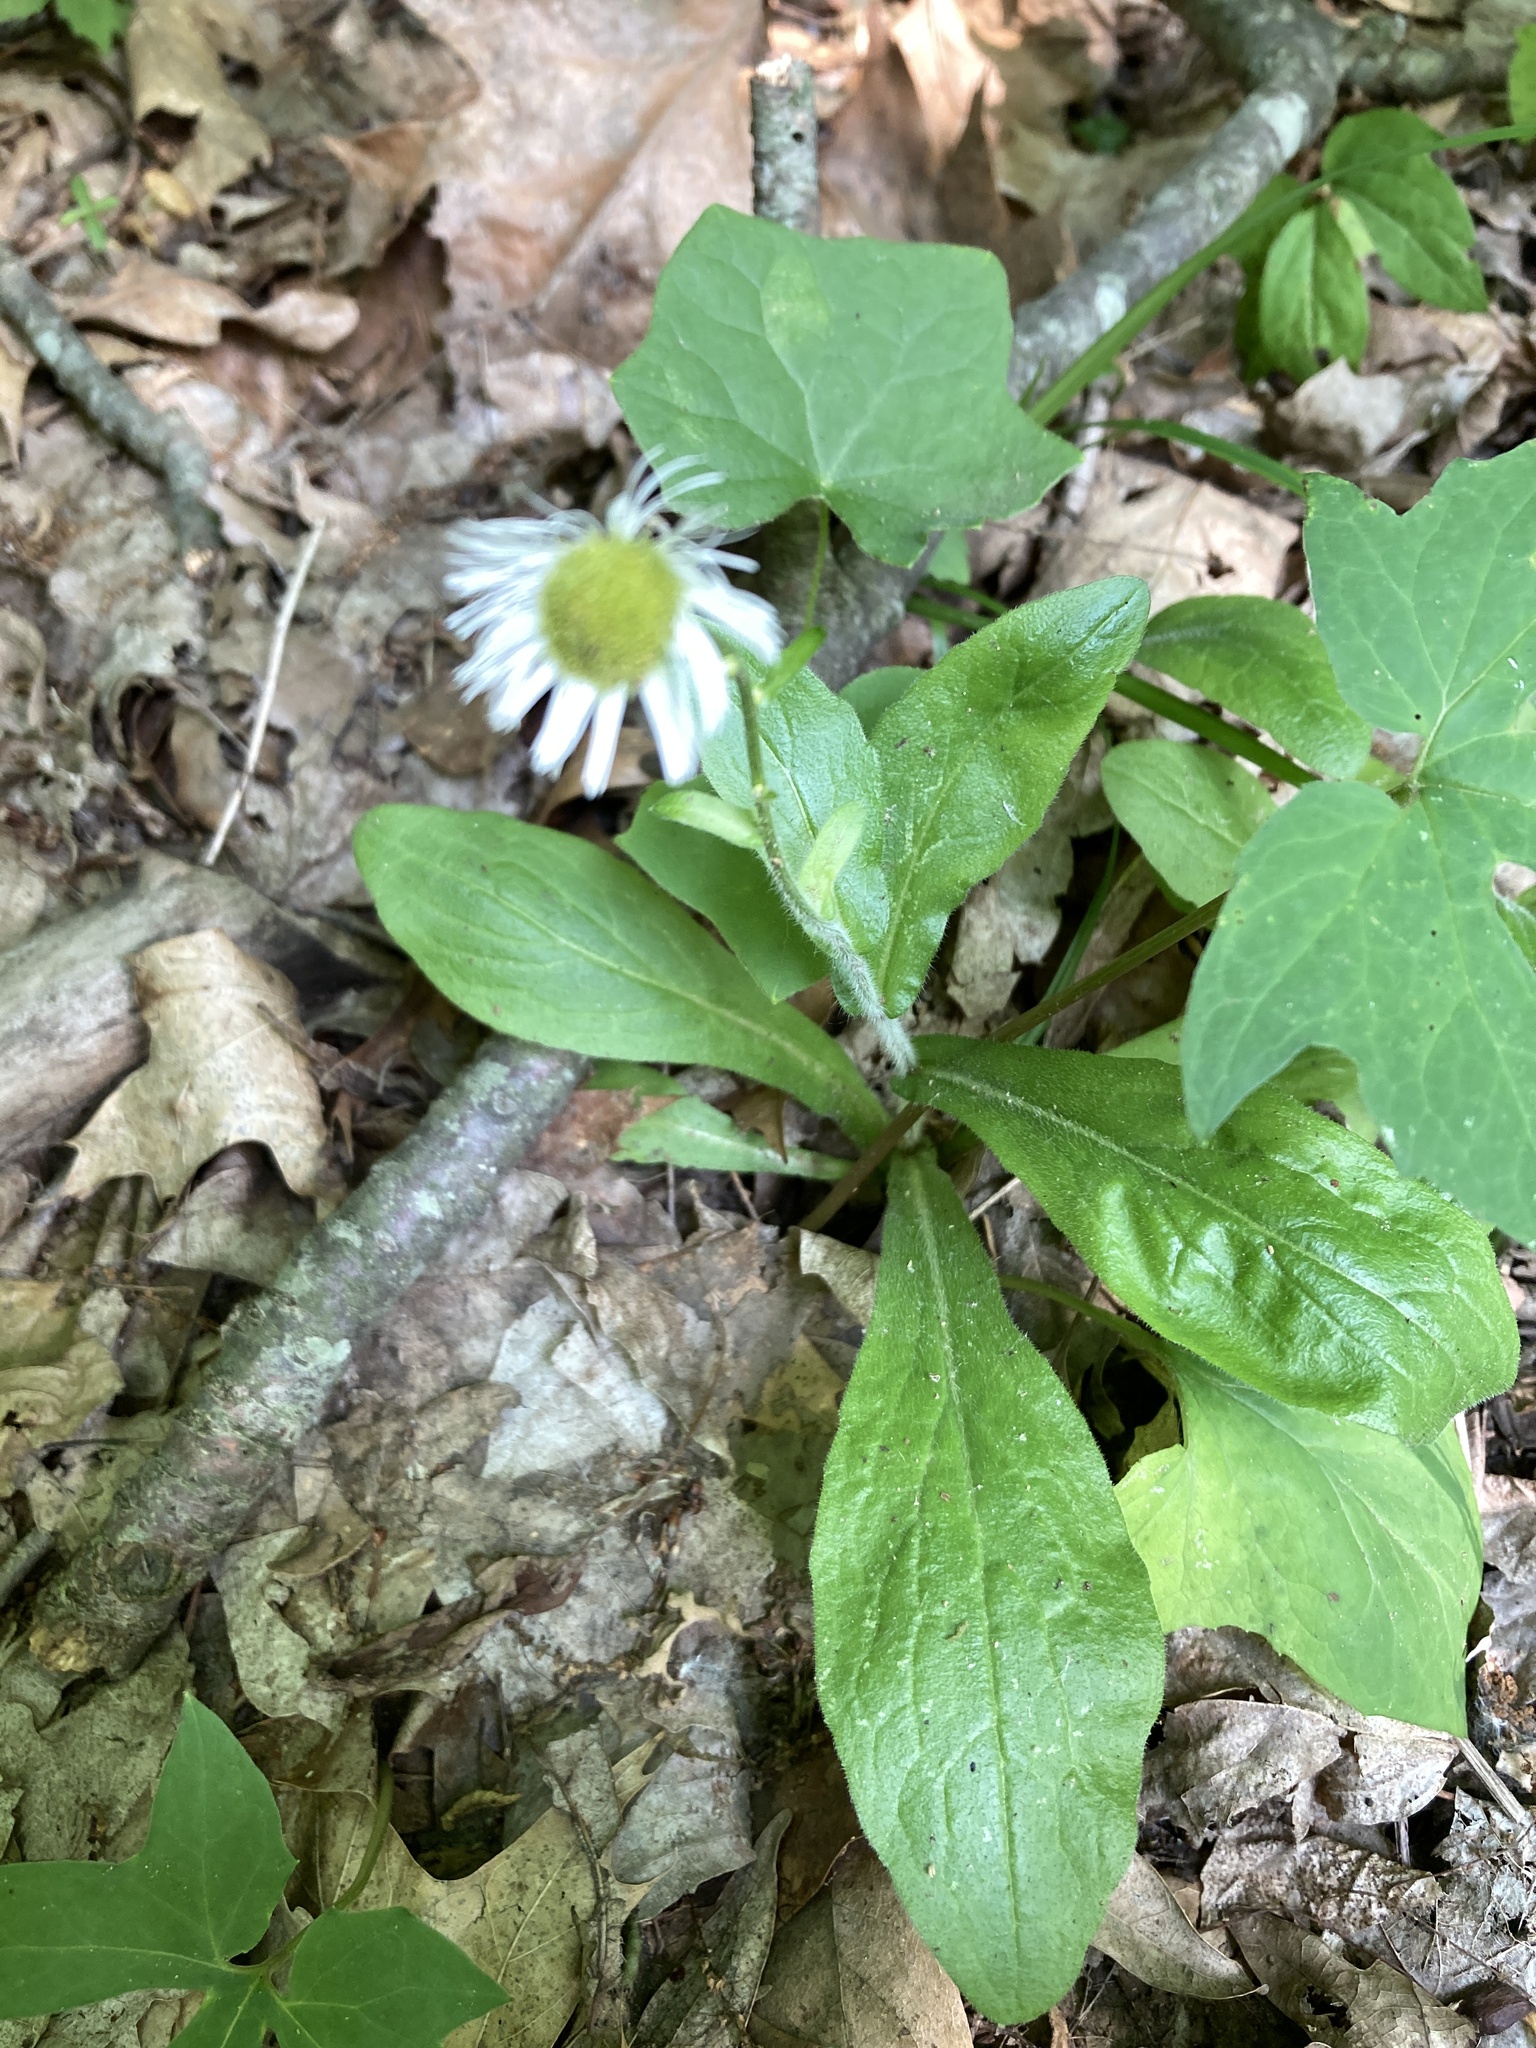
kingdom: Plantae
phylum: Tracheophyta
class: Magnoliopsida
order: Asterales
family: Asteraceae
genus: Erigeron
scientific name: Erigeron philadelphicus
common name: Robin's-plantain
